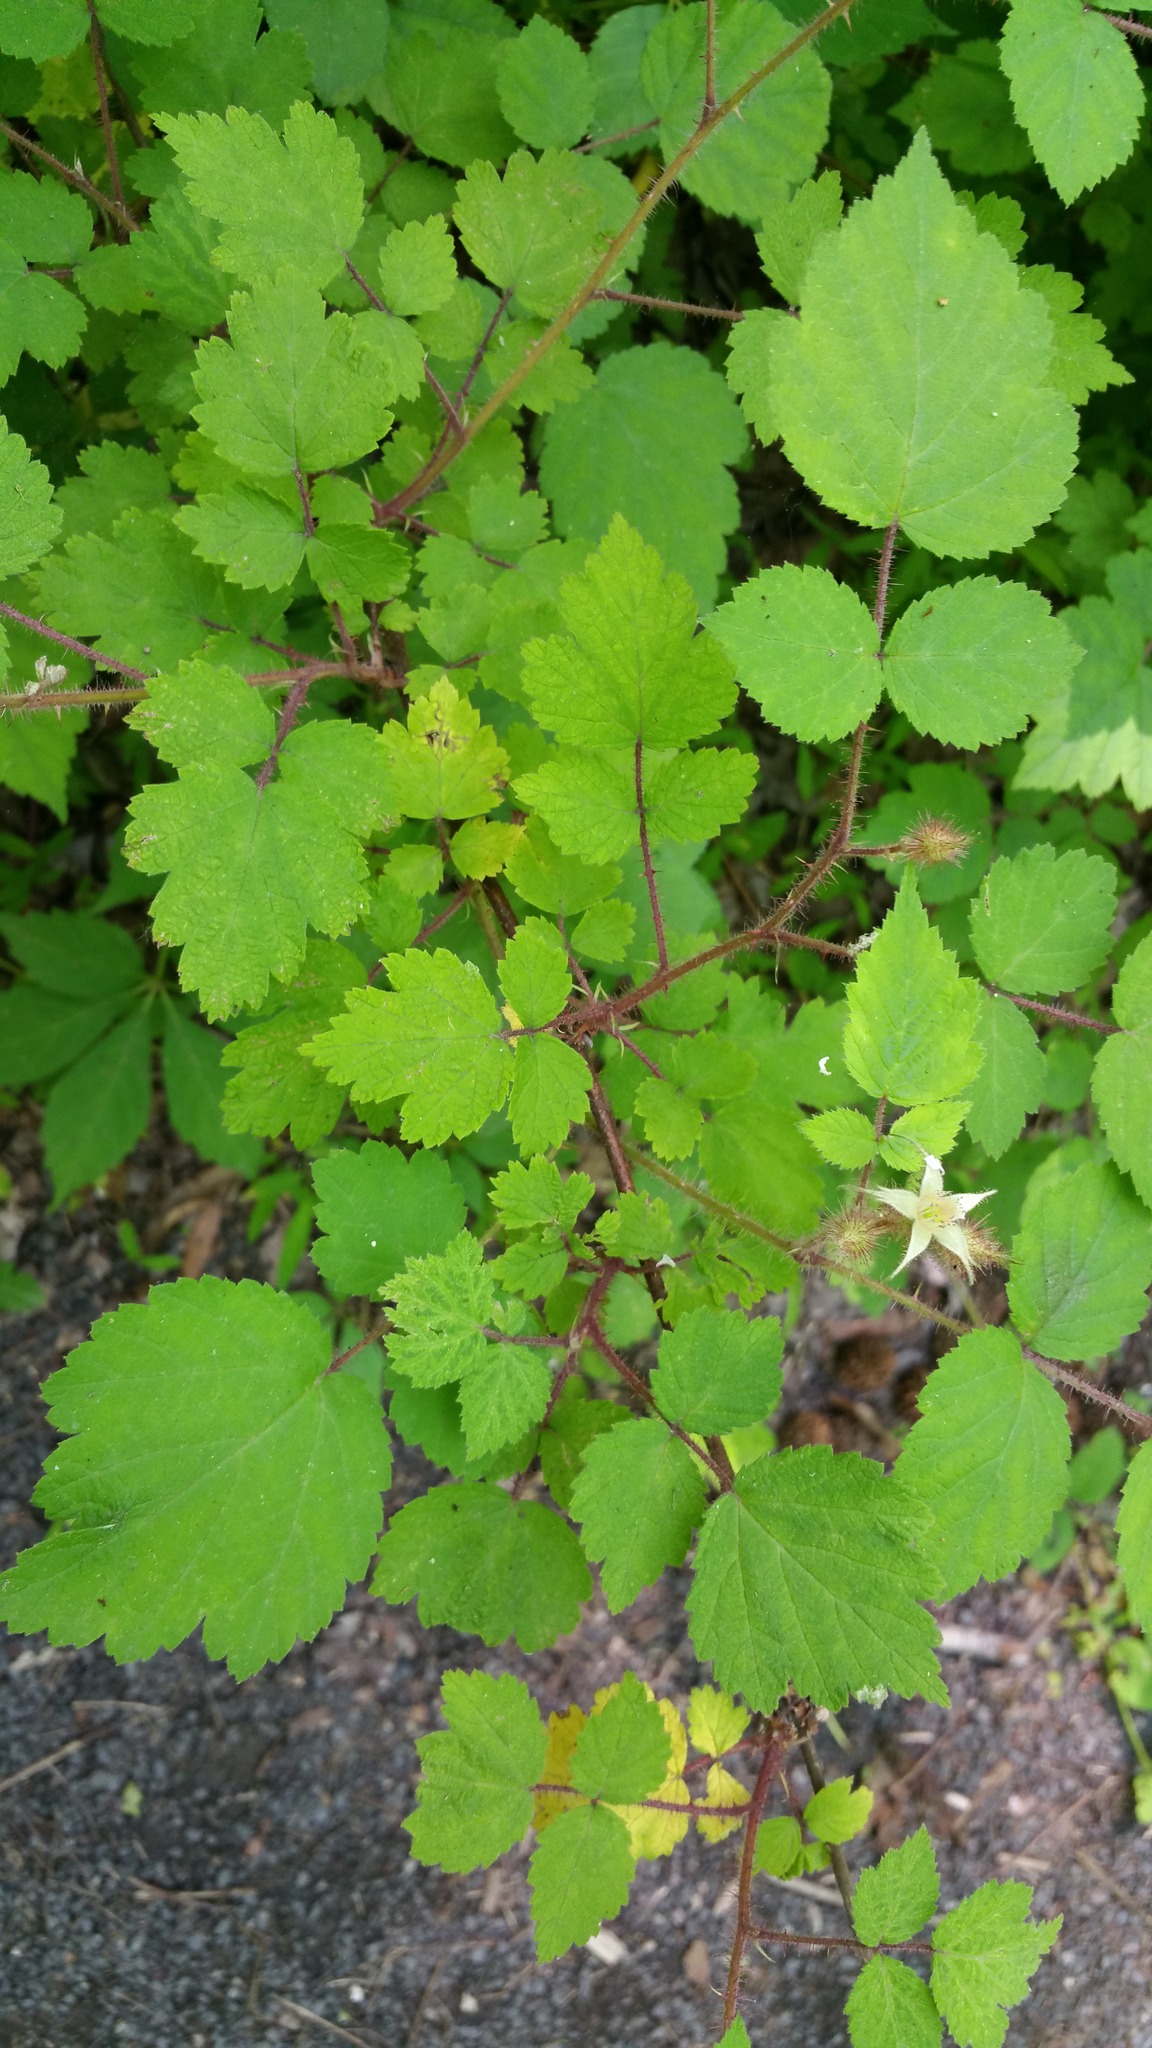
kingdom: Plantae
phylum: Tracheophyta
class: Magnoliopsida
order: Rosales
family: Rosaceae
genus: Rubus
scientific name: Rubus phoenicolasius
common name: Japanese wineberry
